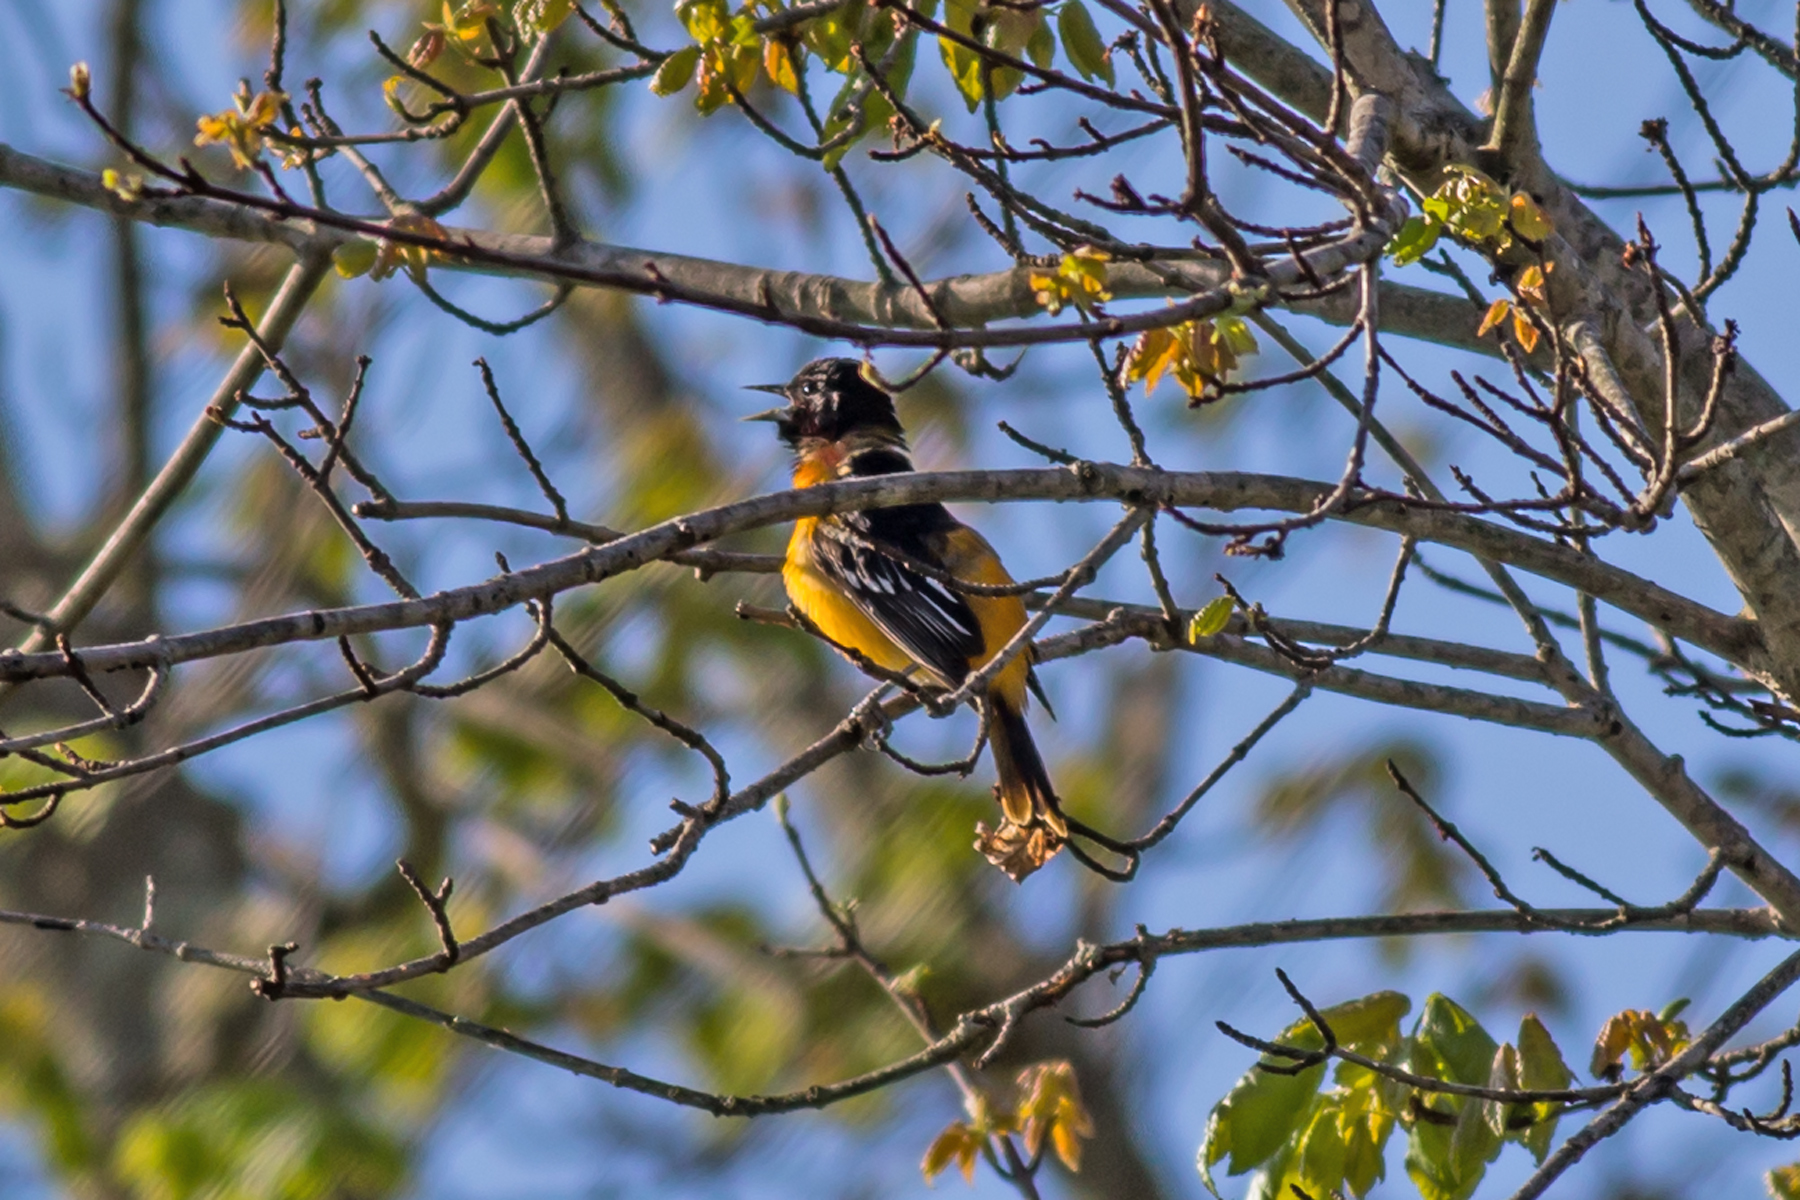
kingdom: Animalia
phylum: Chordata
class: Aves
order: Passeriformes
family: Icteridae
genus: Icterus
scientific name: Icterus galbula
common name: Baltimore oriole
